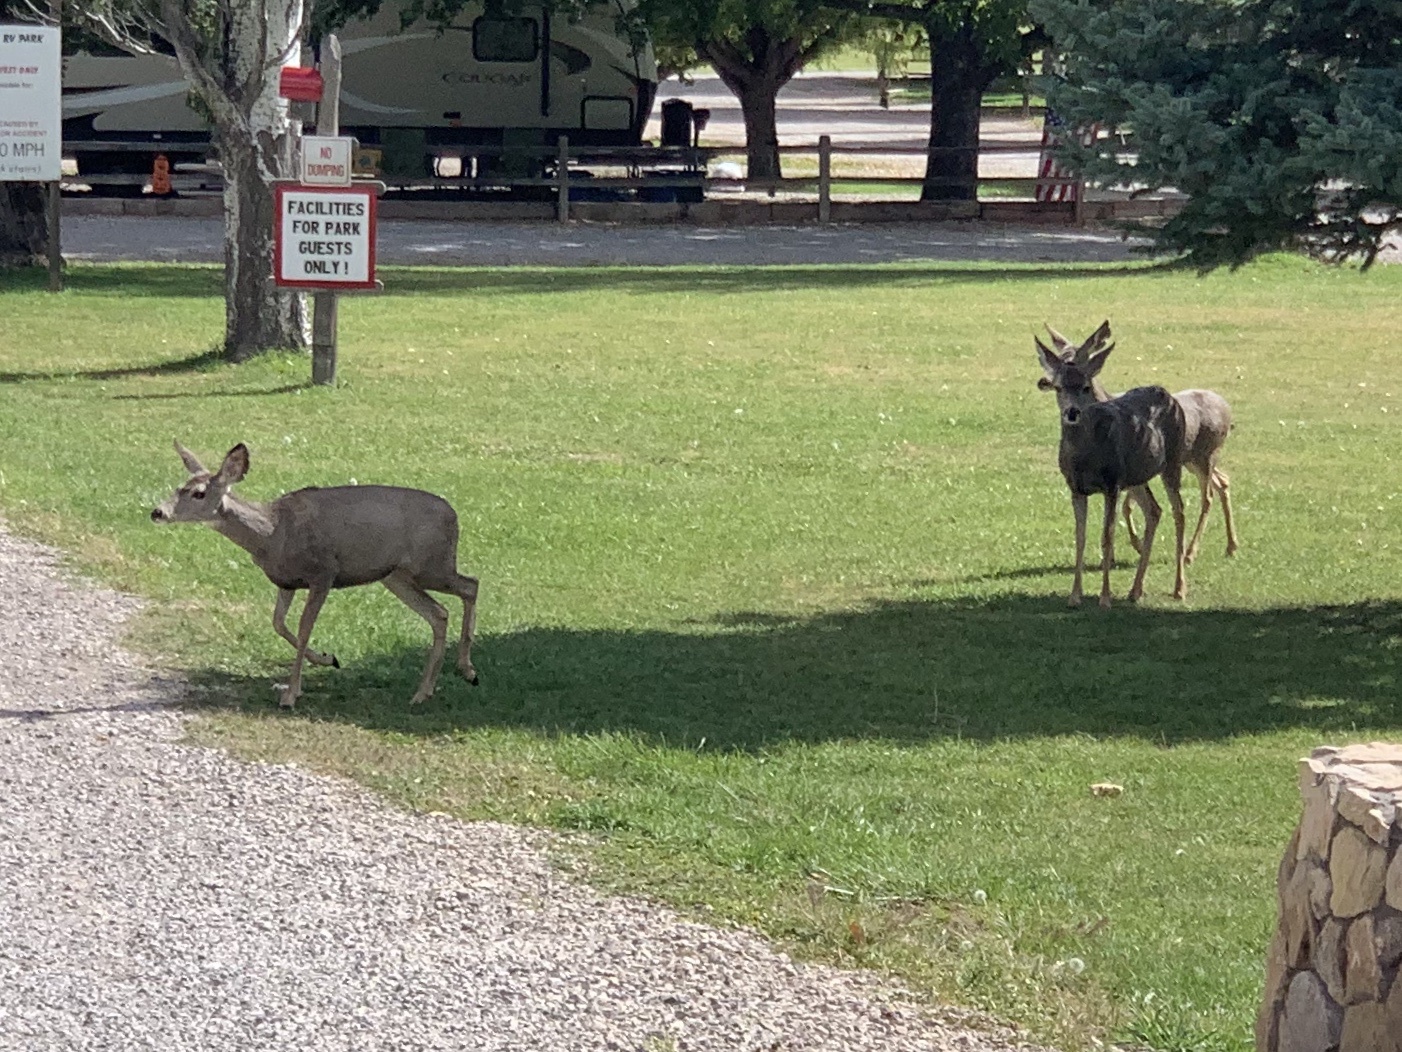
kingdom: Animalia
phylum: Chordata
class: Mammalia
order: Artiodactyla
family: Cervidae
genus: Odocoileus
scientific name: Odocoileus hemionus
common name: Mule deer
